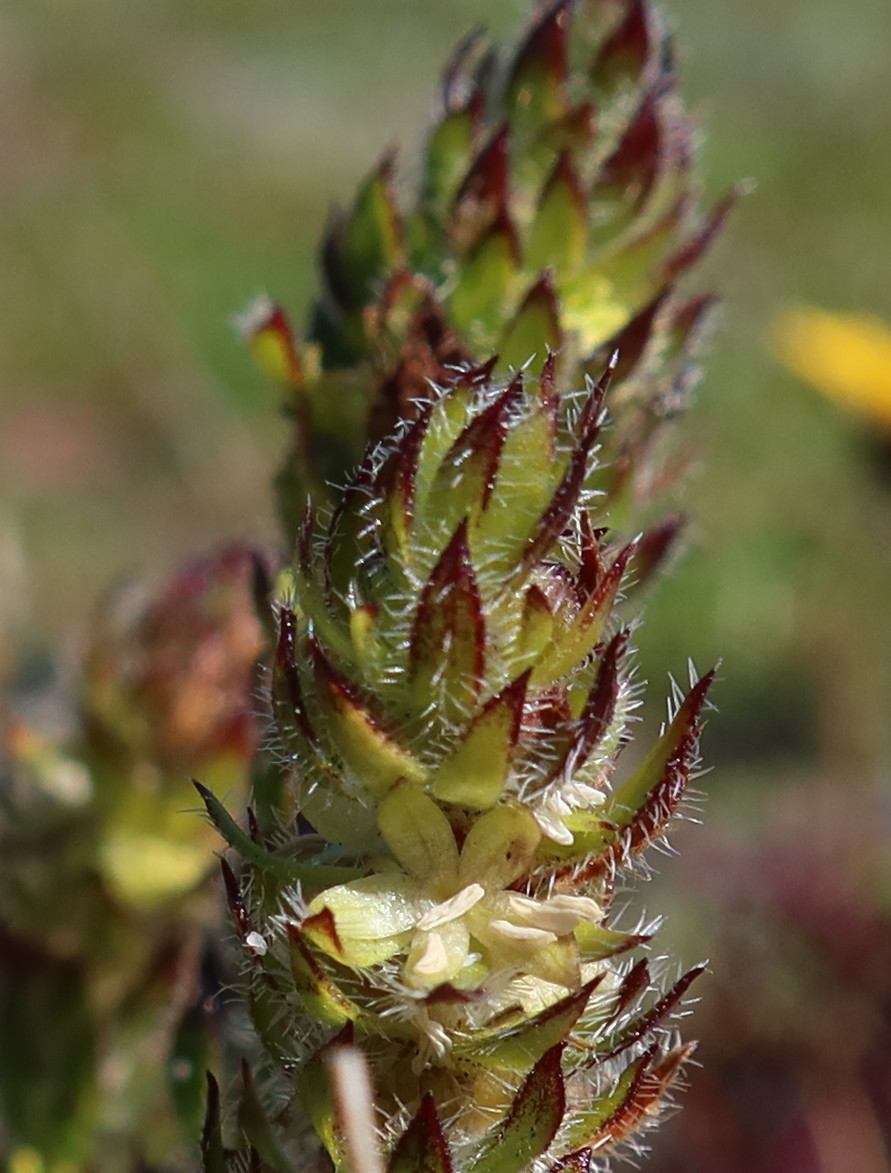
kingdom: Plantae
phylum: Tracheophyta
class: Magnoliopsida
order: Gentianales
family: Rubiaceae
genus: Anthospermum
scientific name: Anthospermum bergianum
